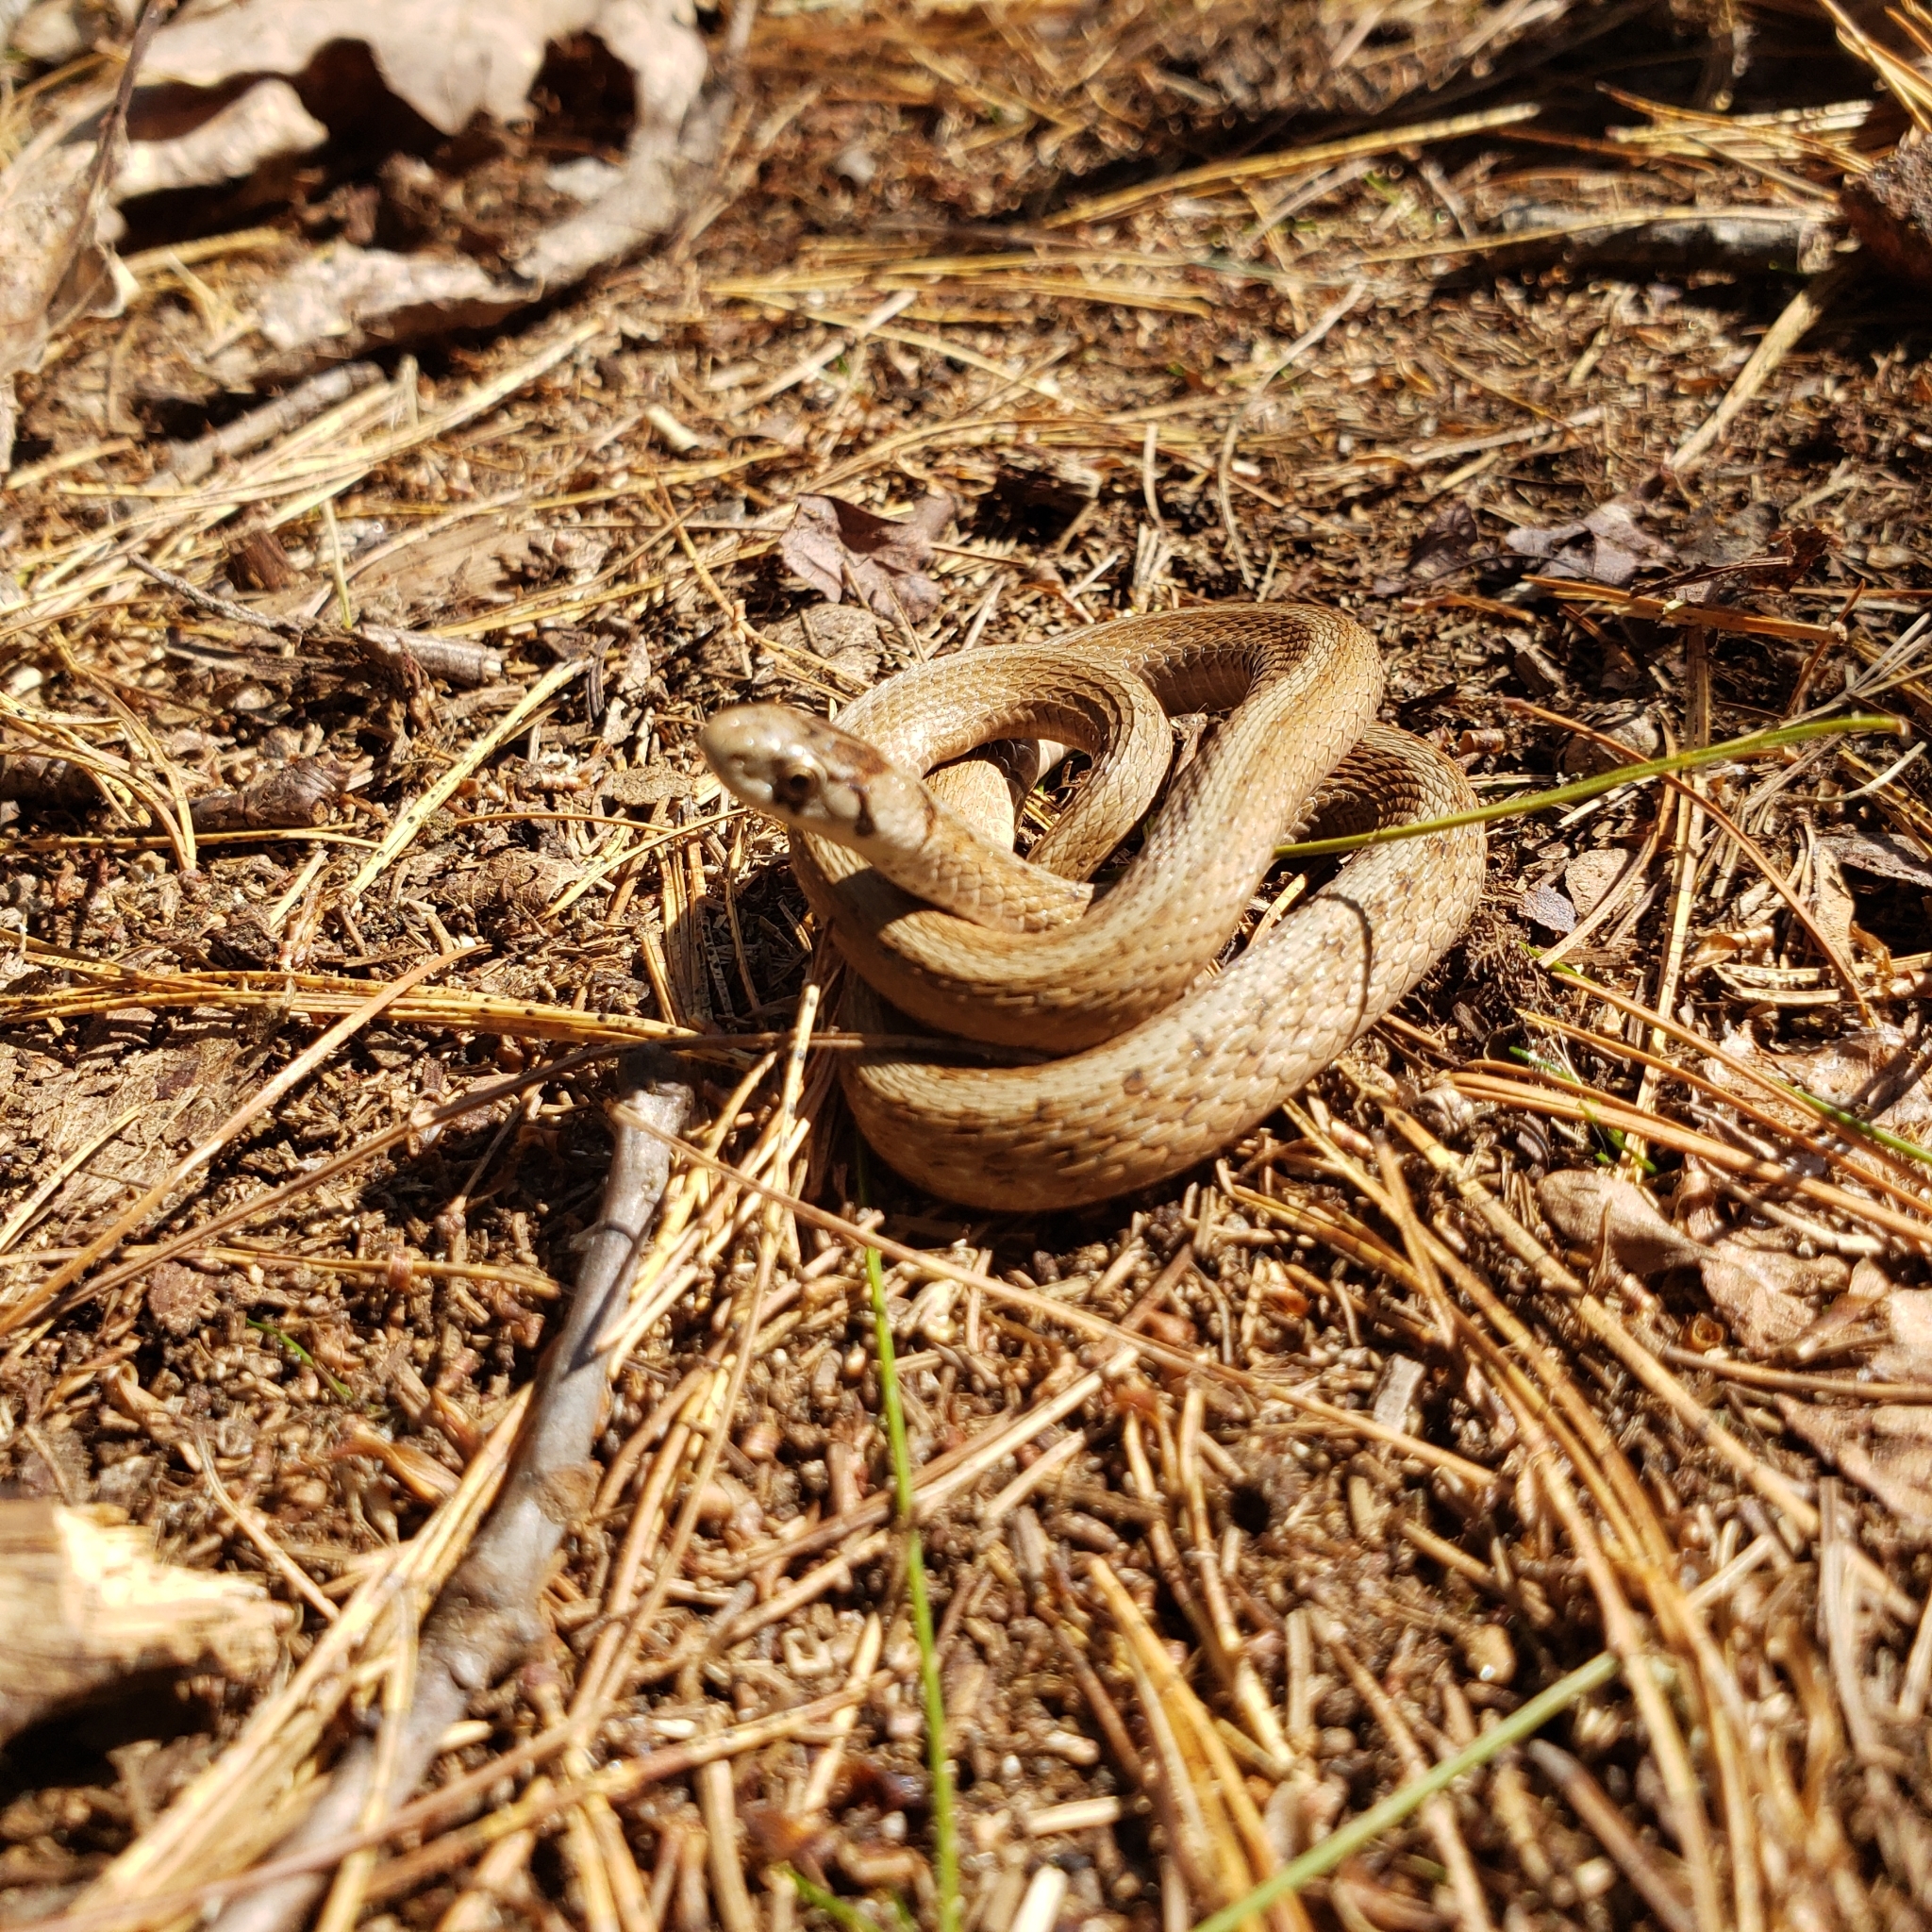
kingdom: Animalia
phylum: Chordata
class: Squamata
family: Colubridae
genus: Storeria
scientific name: Storeria dekayi
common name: (dekay’s) brown snake
